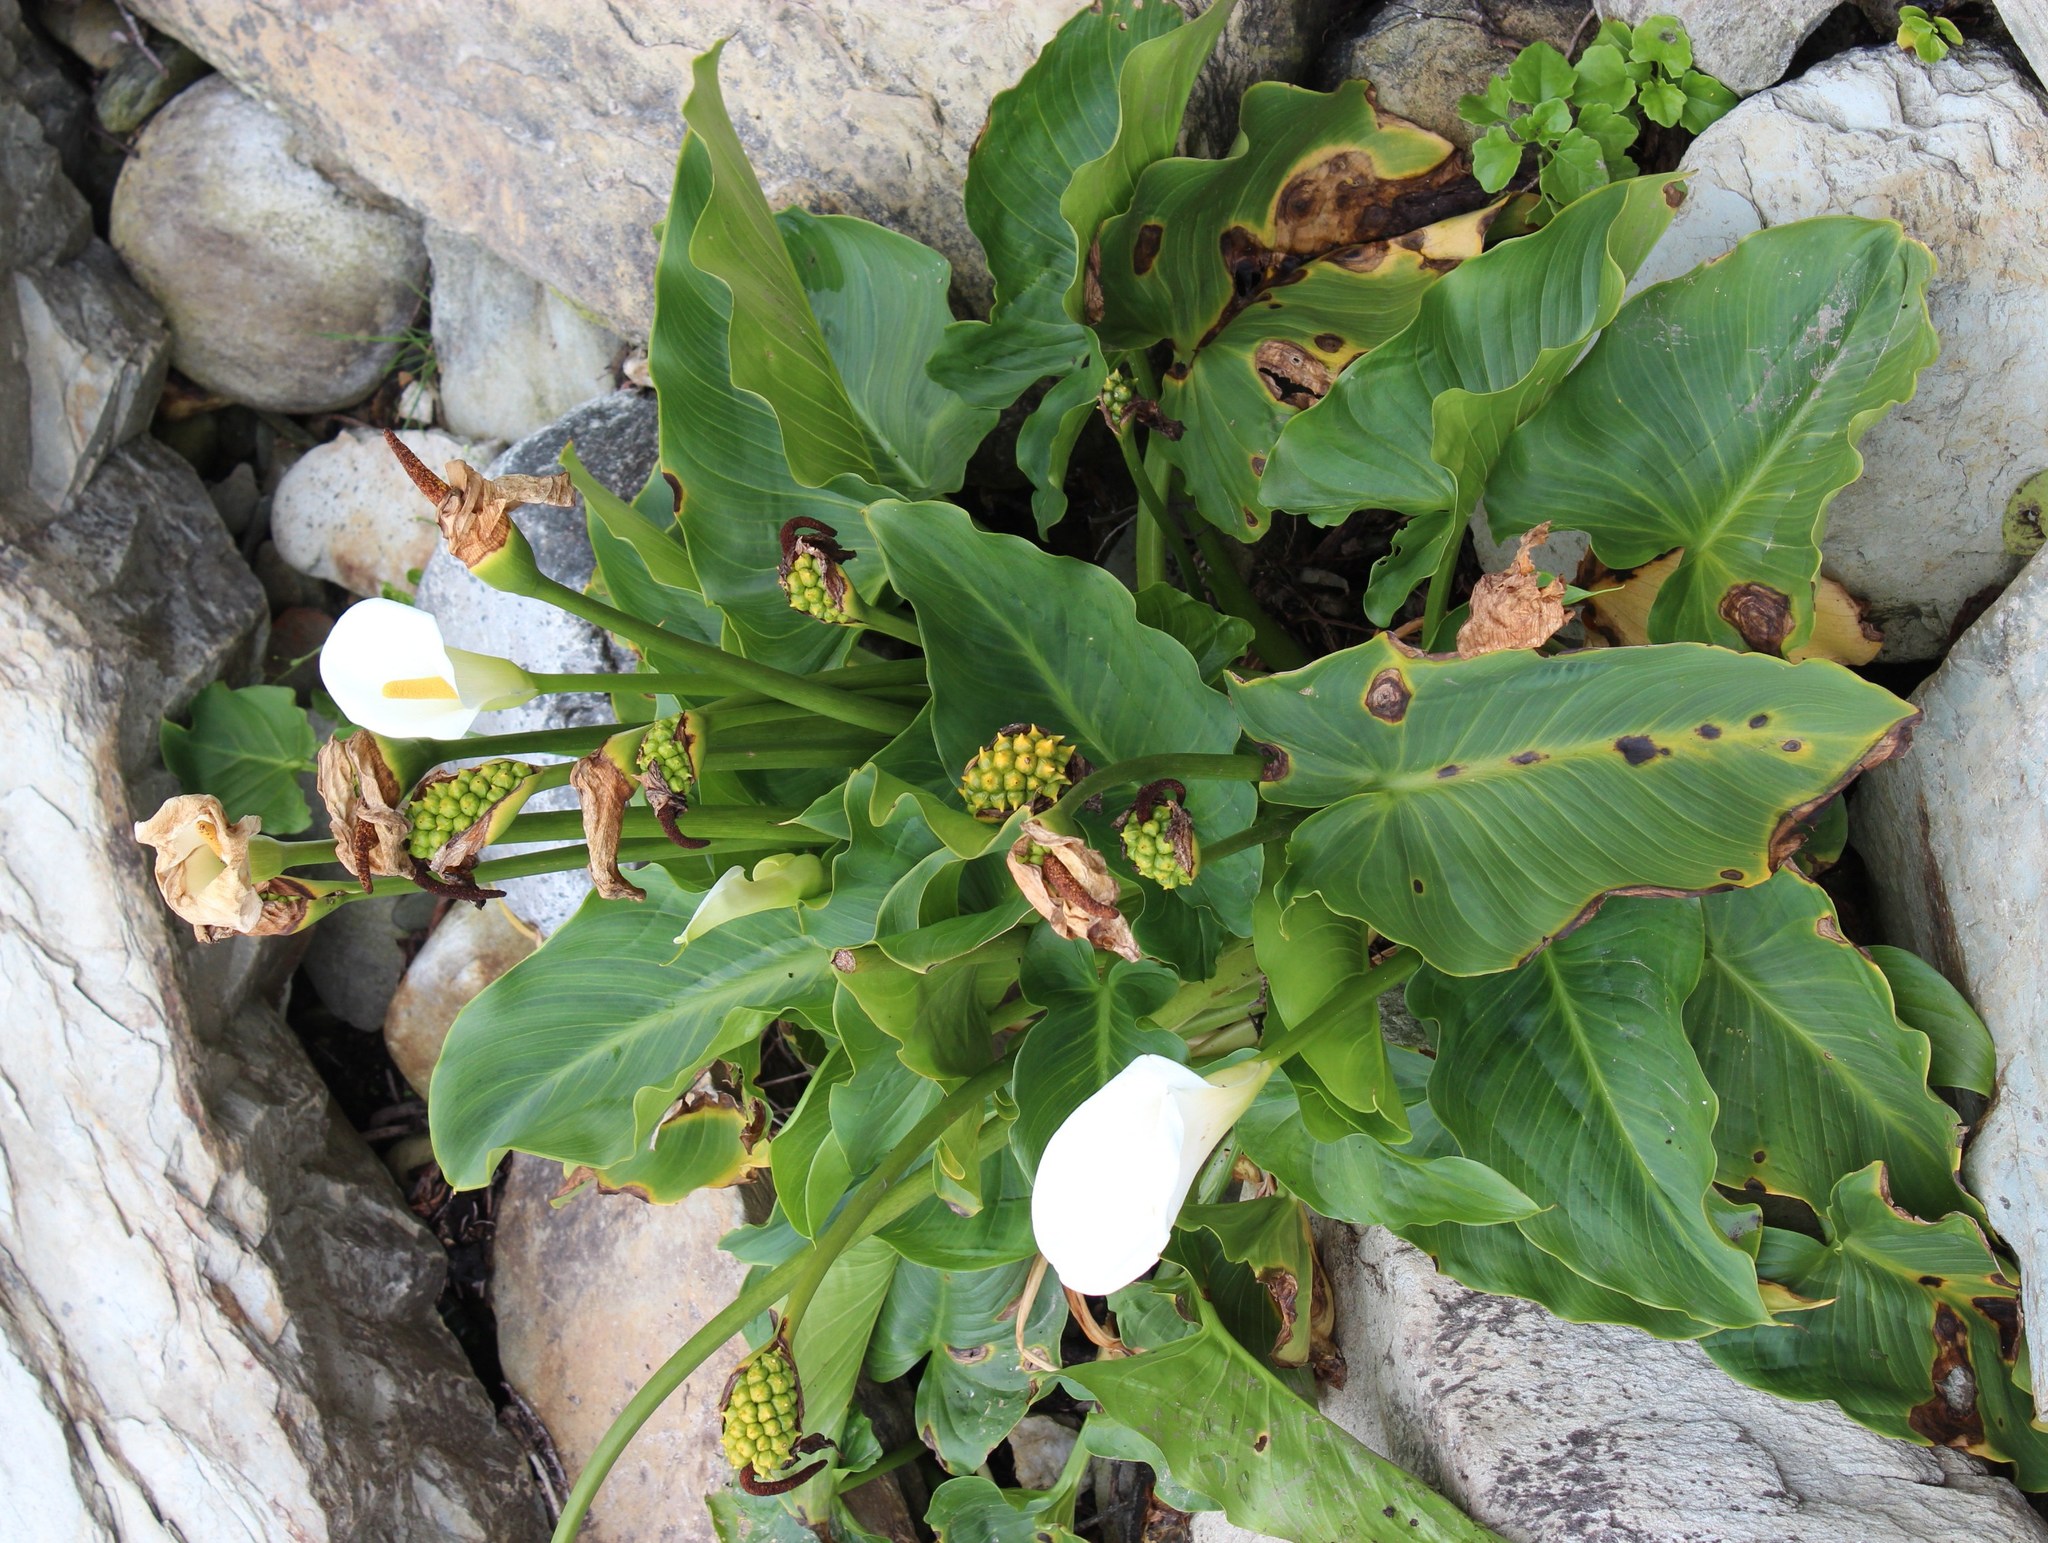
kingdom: Plantae
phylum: Tracheophyta
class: Liliopsida
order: Alismatales
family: Araceae
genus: Zantedeschia
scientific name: Zantedeschia aethiopica
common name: Altar-lily
